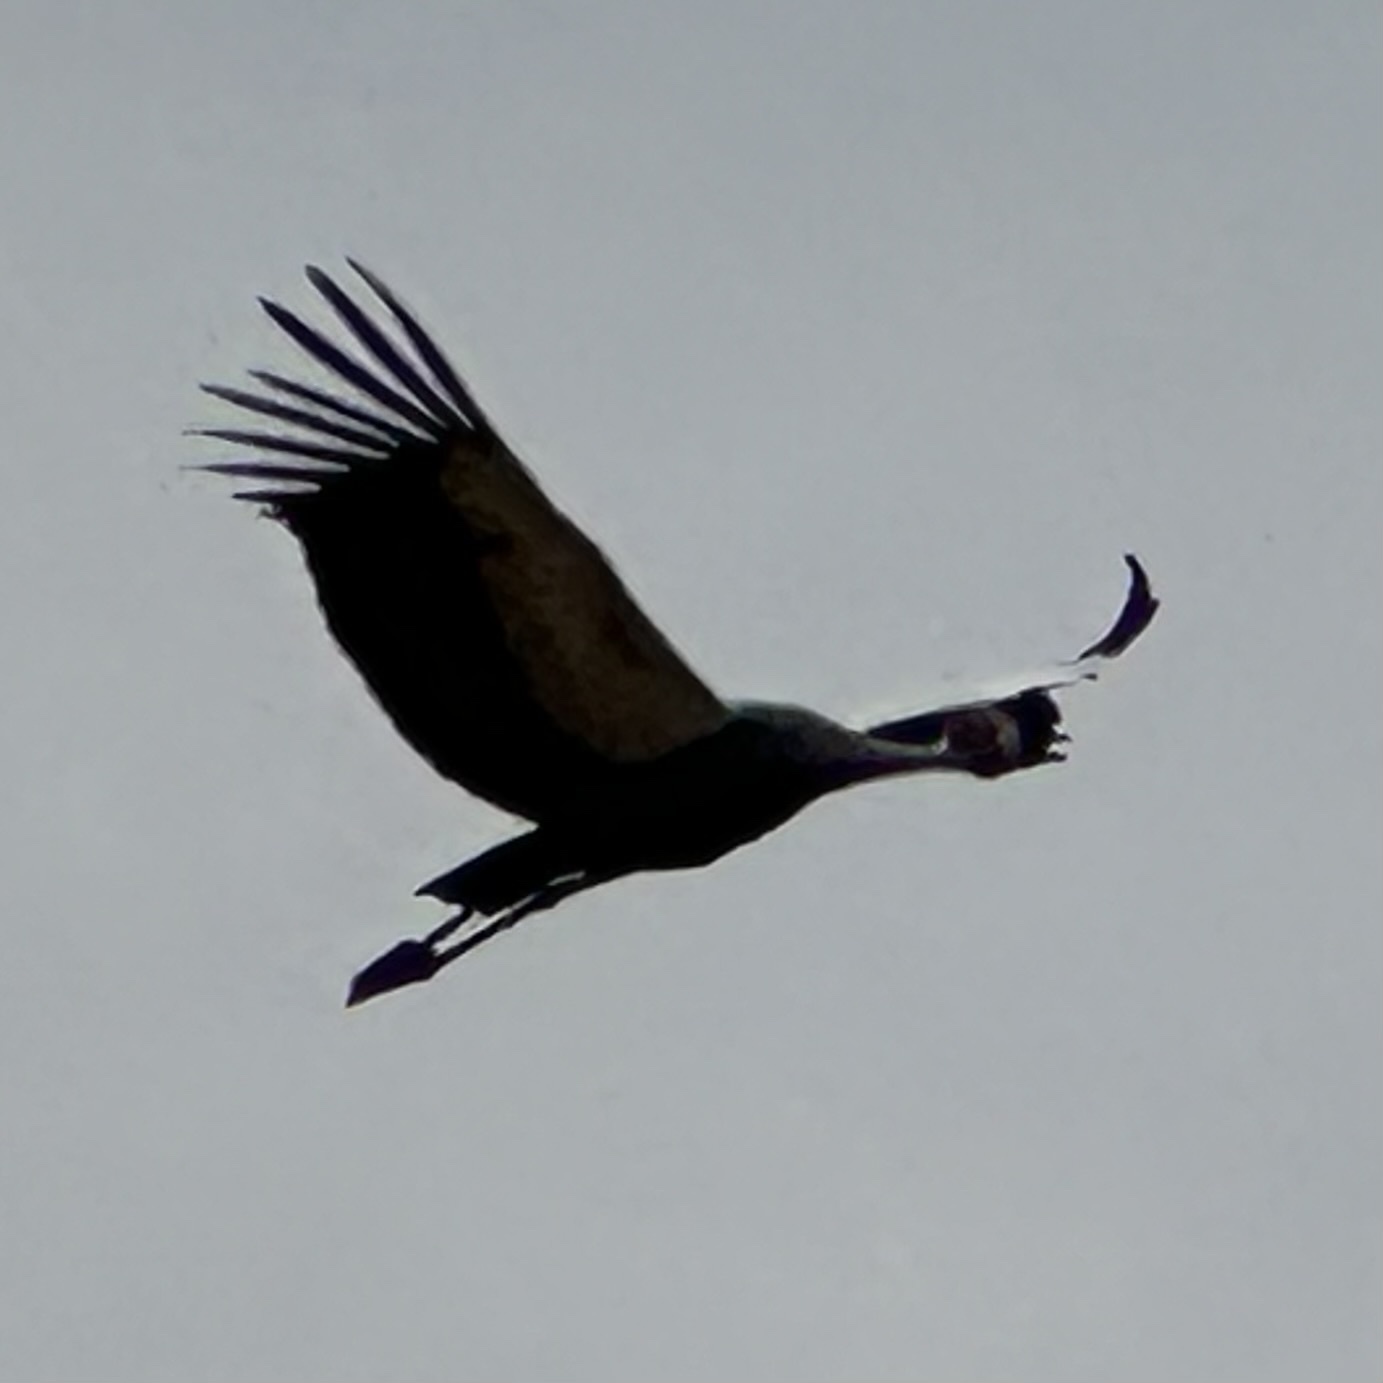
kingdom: Animalia
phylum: Chordata
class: Aves
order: Gruiformes
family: Gruidae
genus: Balearica
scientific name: Balearica regulorum
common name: Grey crowned crane
